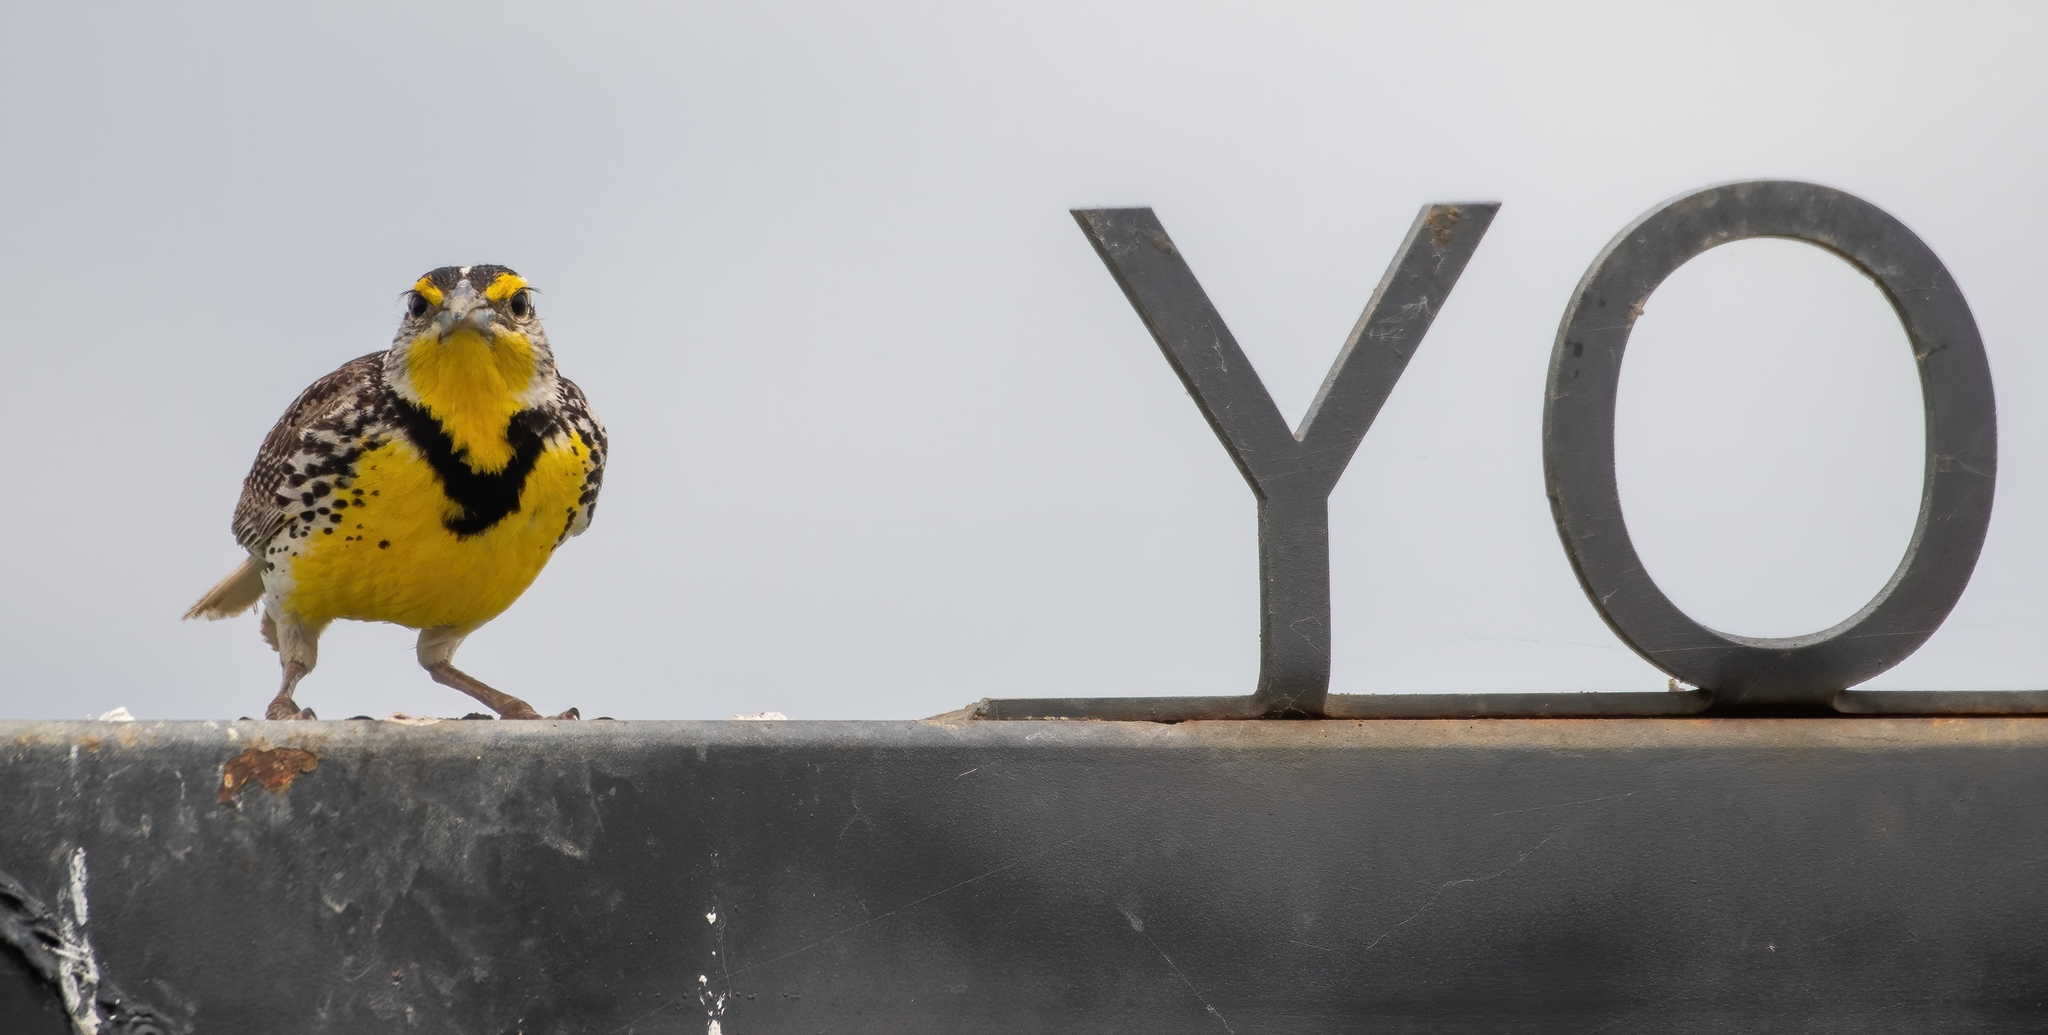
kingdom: Animalia
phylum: Chordata
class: Aves
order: Passeriformes
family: Icteridae
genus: Sturnella
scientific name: Sturnella neglecta
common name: Western meadowlark
